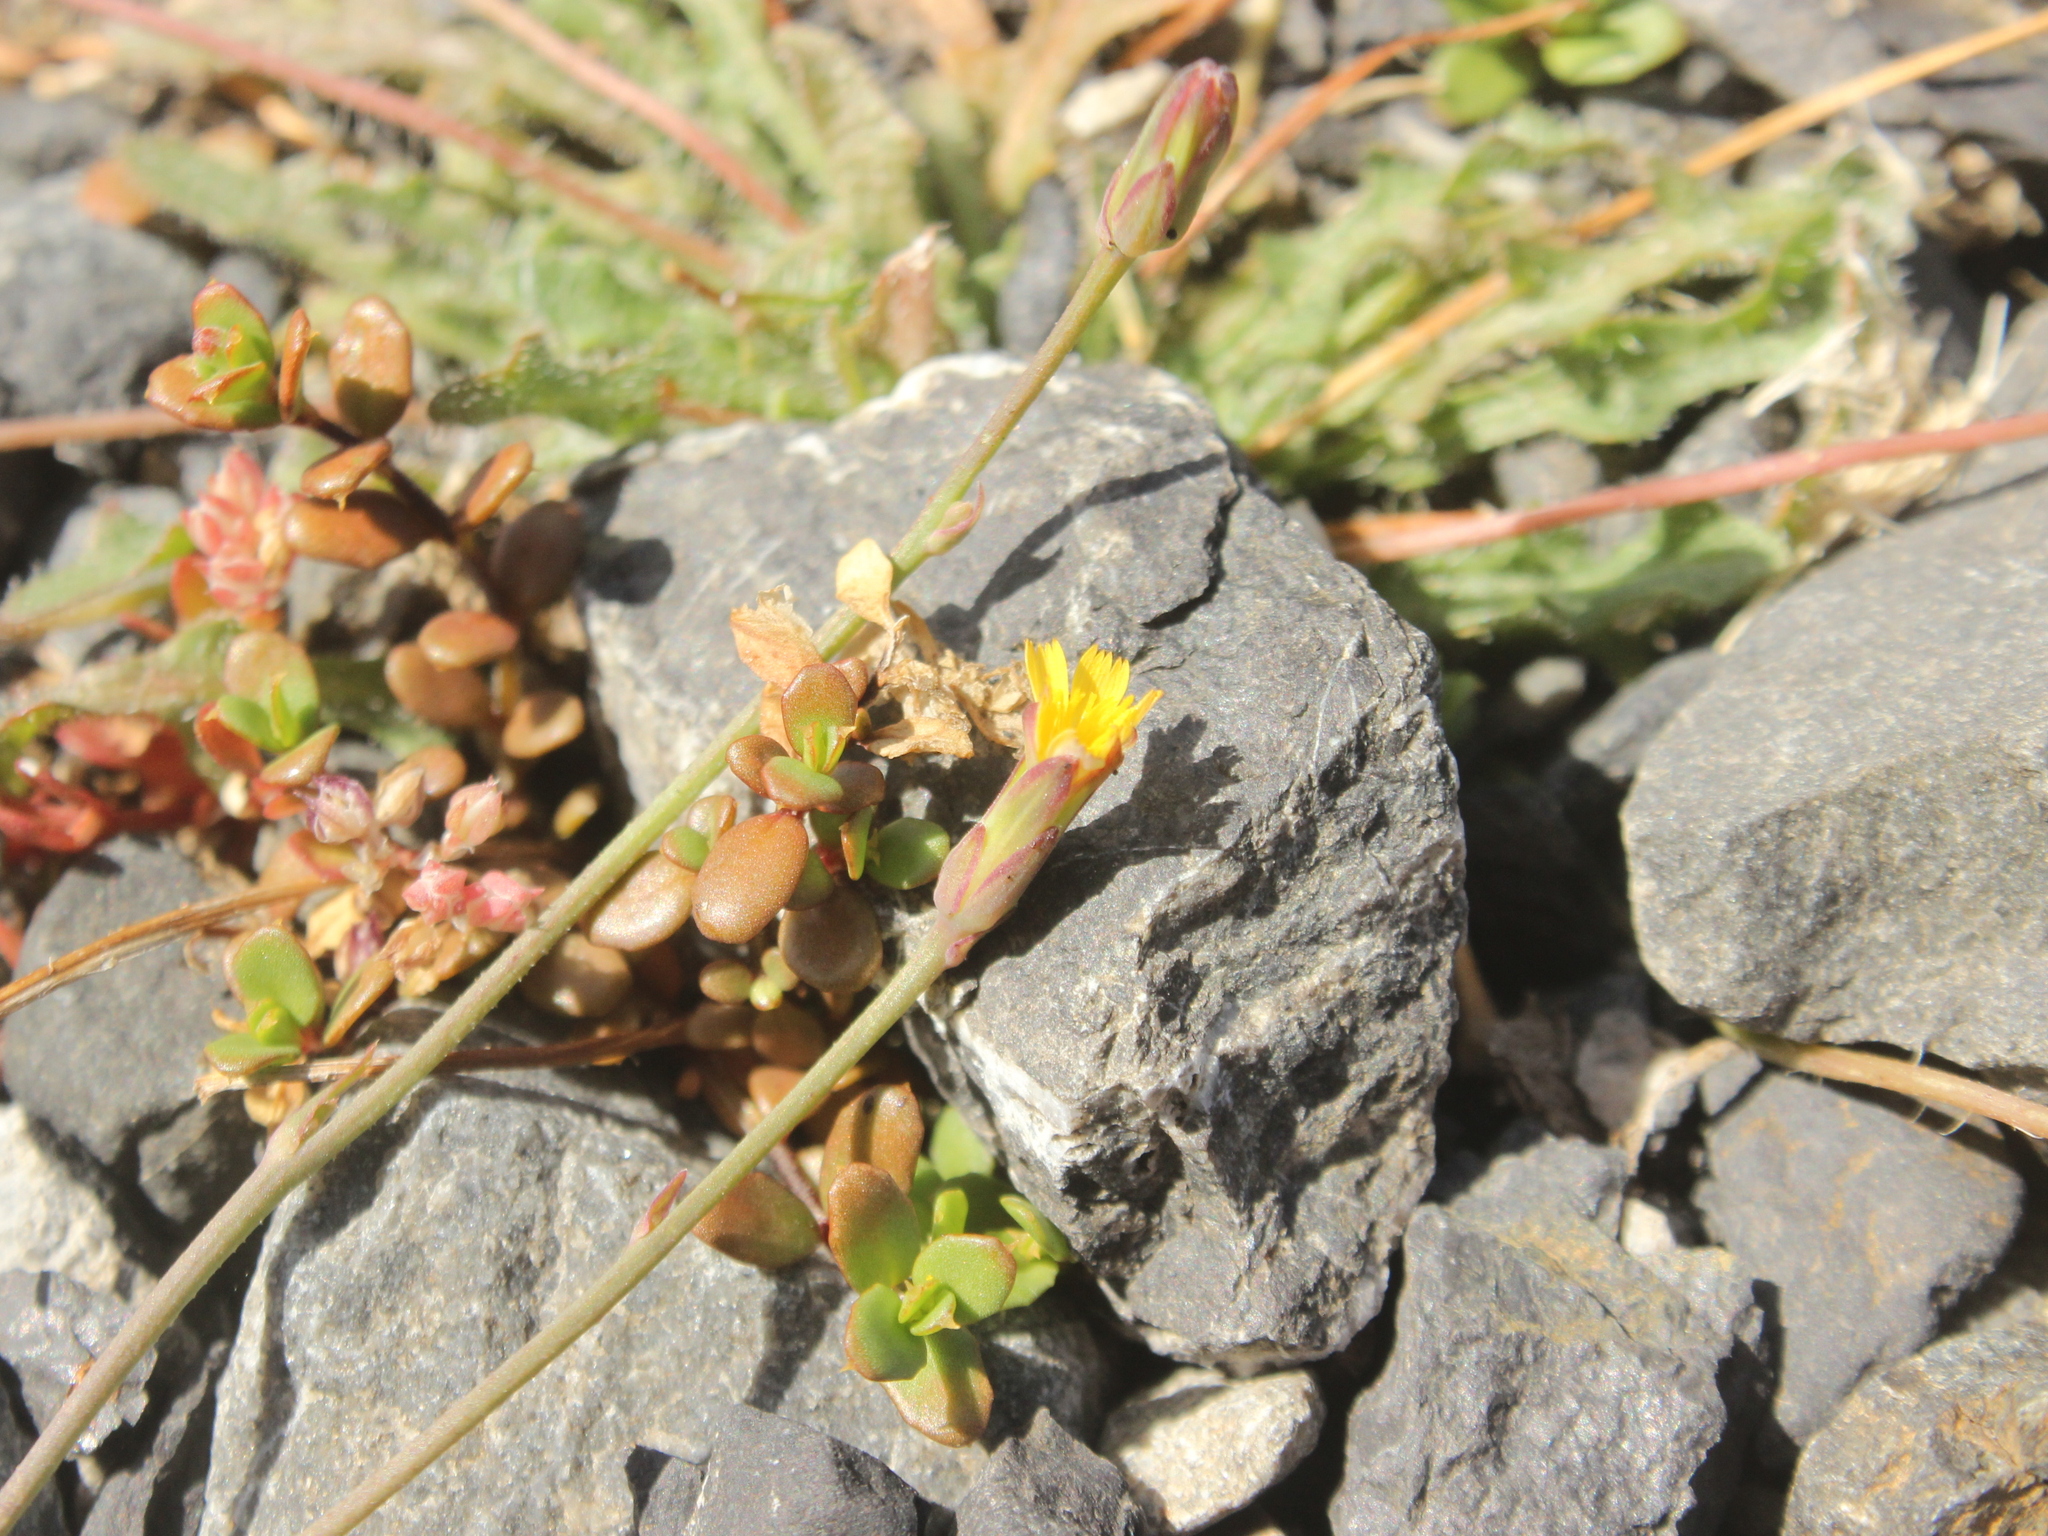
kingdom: Plantae
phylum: Tracheophyta
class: Magnoliopsida
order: Asterales
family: Asteraceae
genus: Microseris
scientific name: Microseris scapigera
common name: Yam daisy
